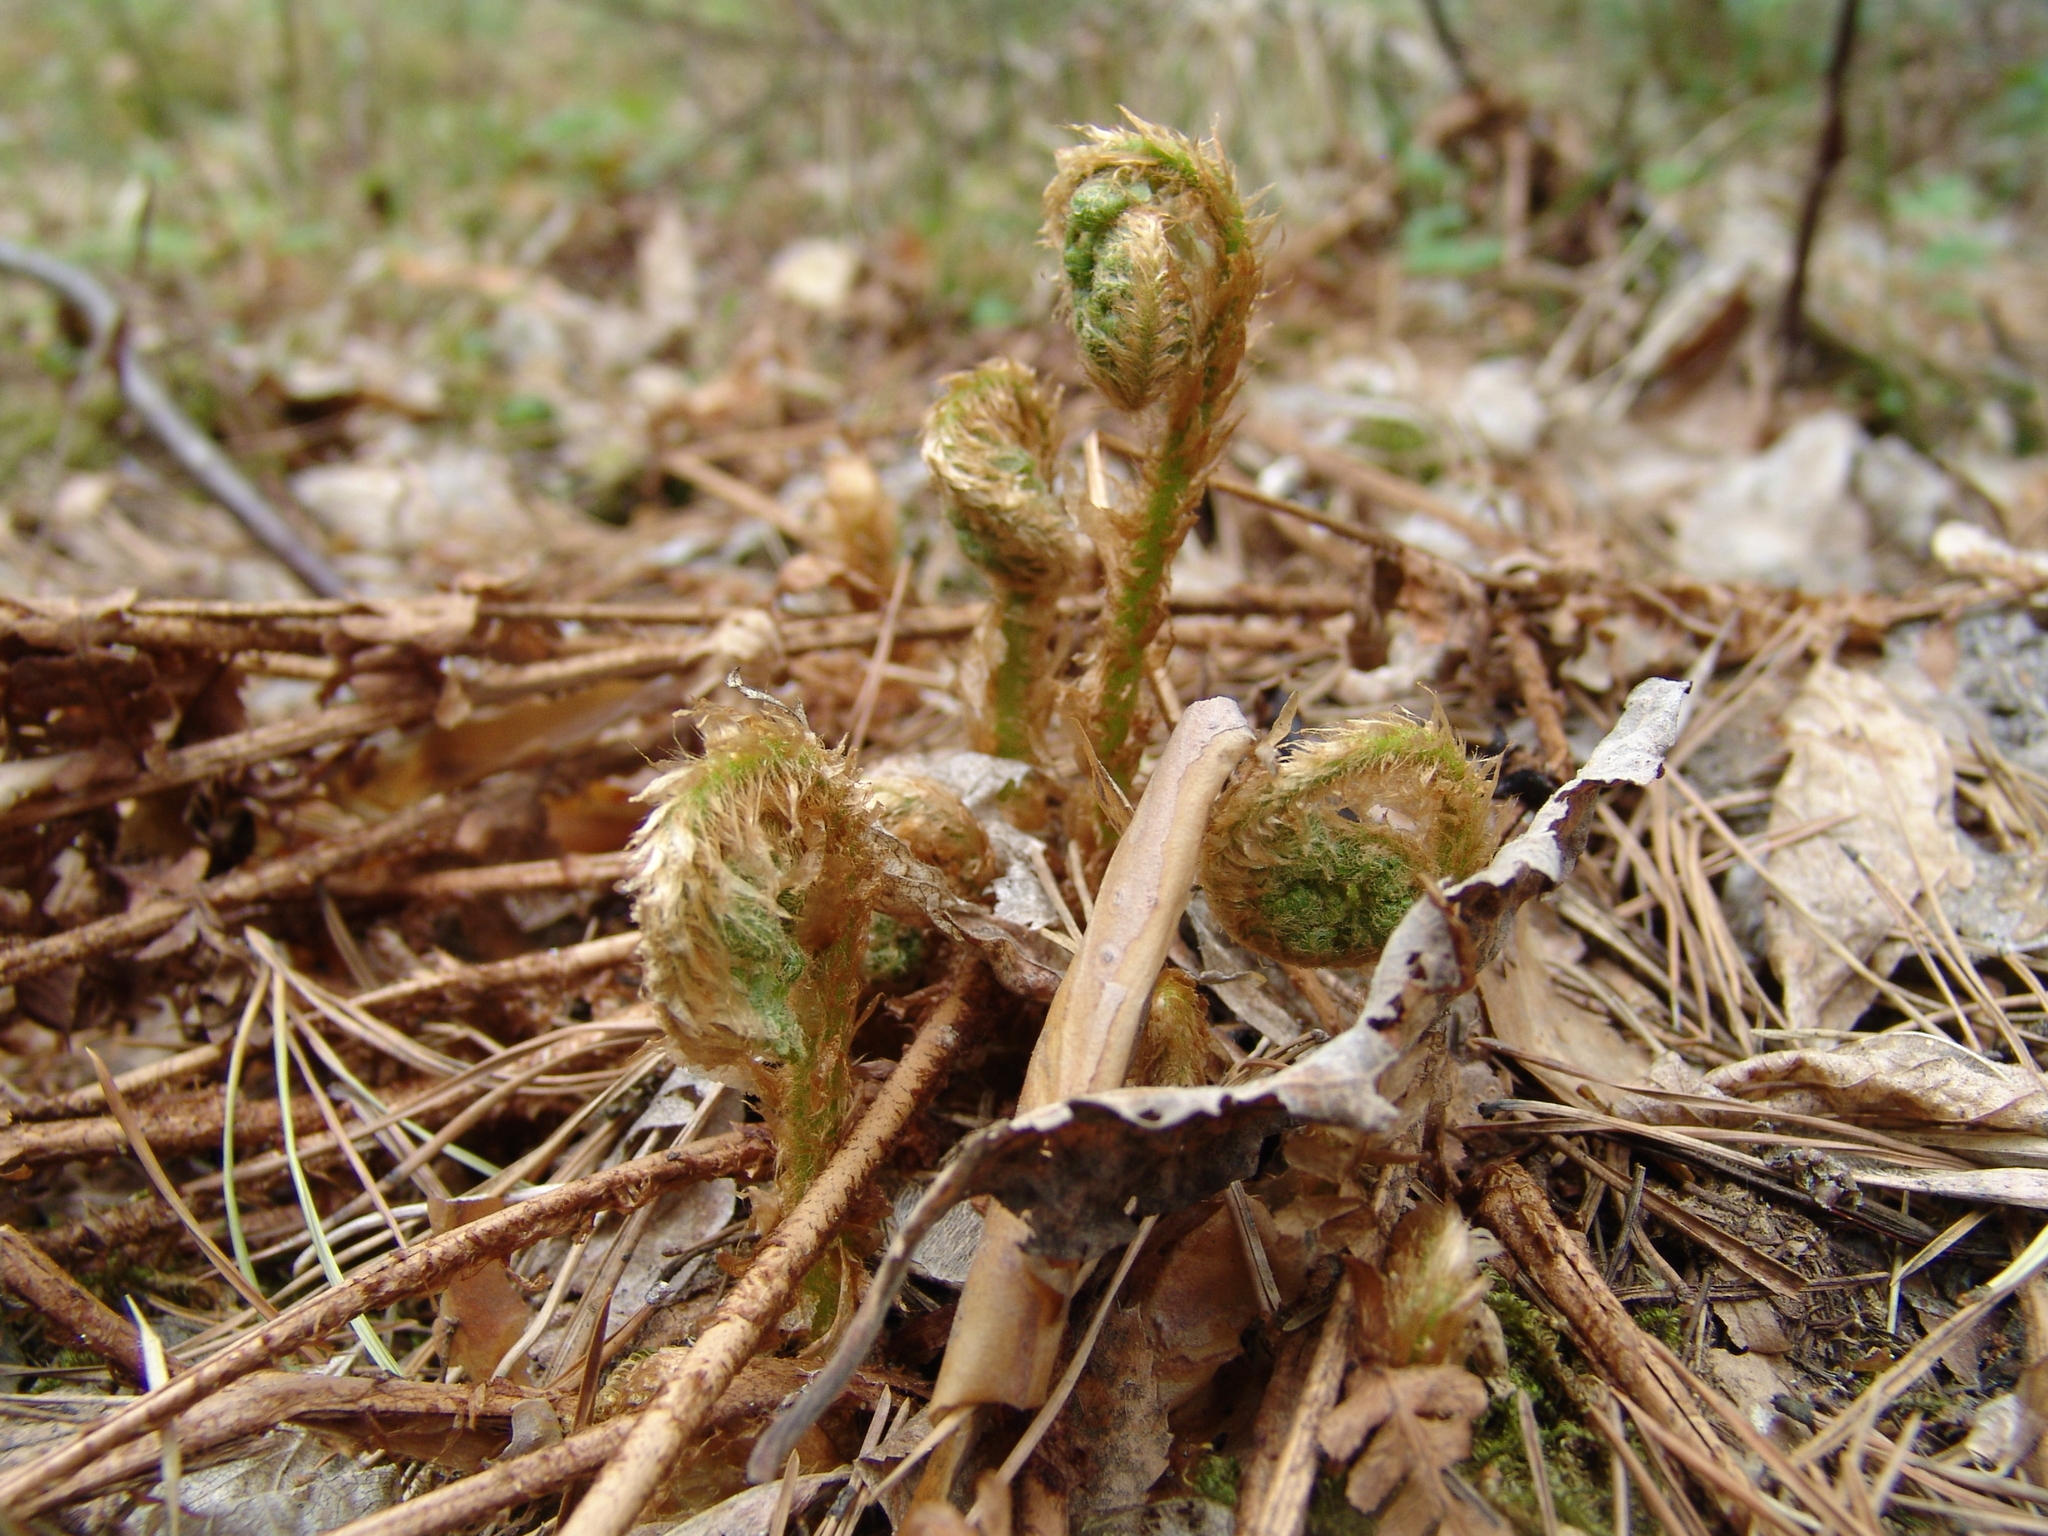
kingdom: Plantae
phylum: Tracheophyta
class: Polypodiopsida
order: Polypodiales
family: Dryopteridaceae
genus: Dryopteris
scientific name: Dryopteris filix-mas
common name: Male fern
